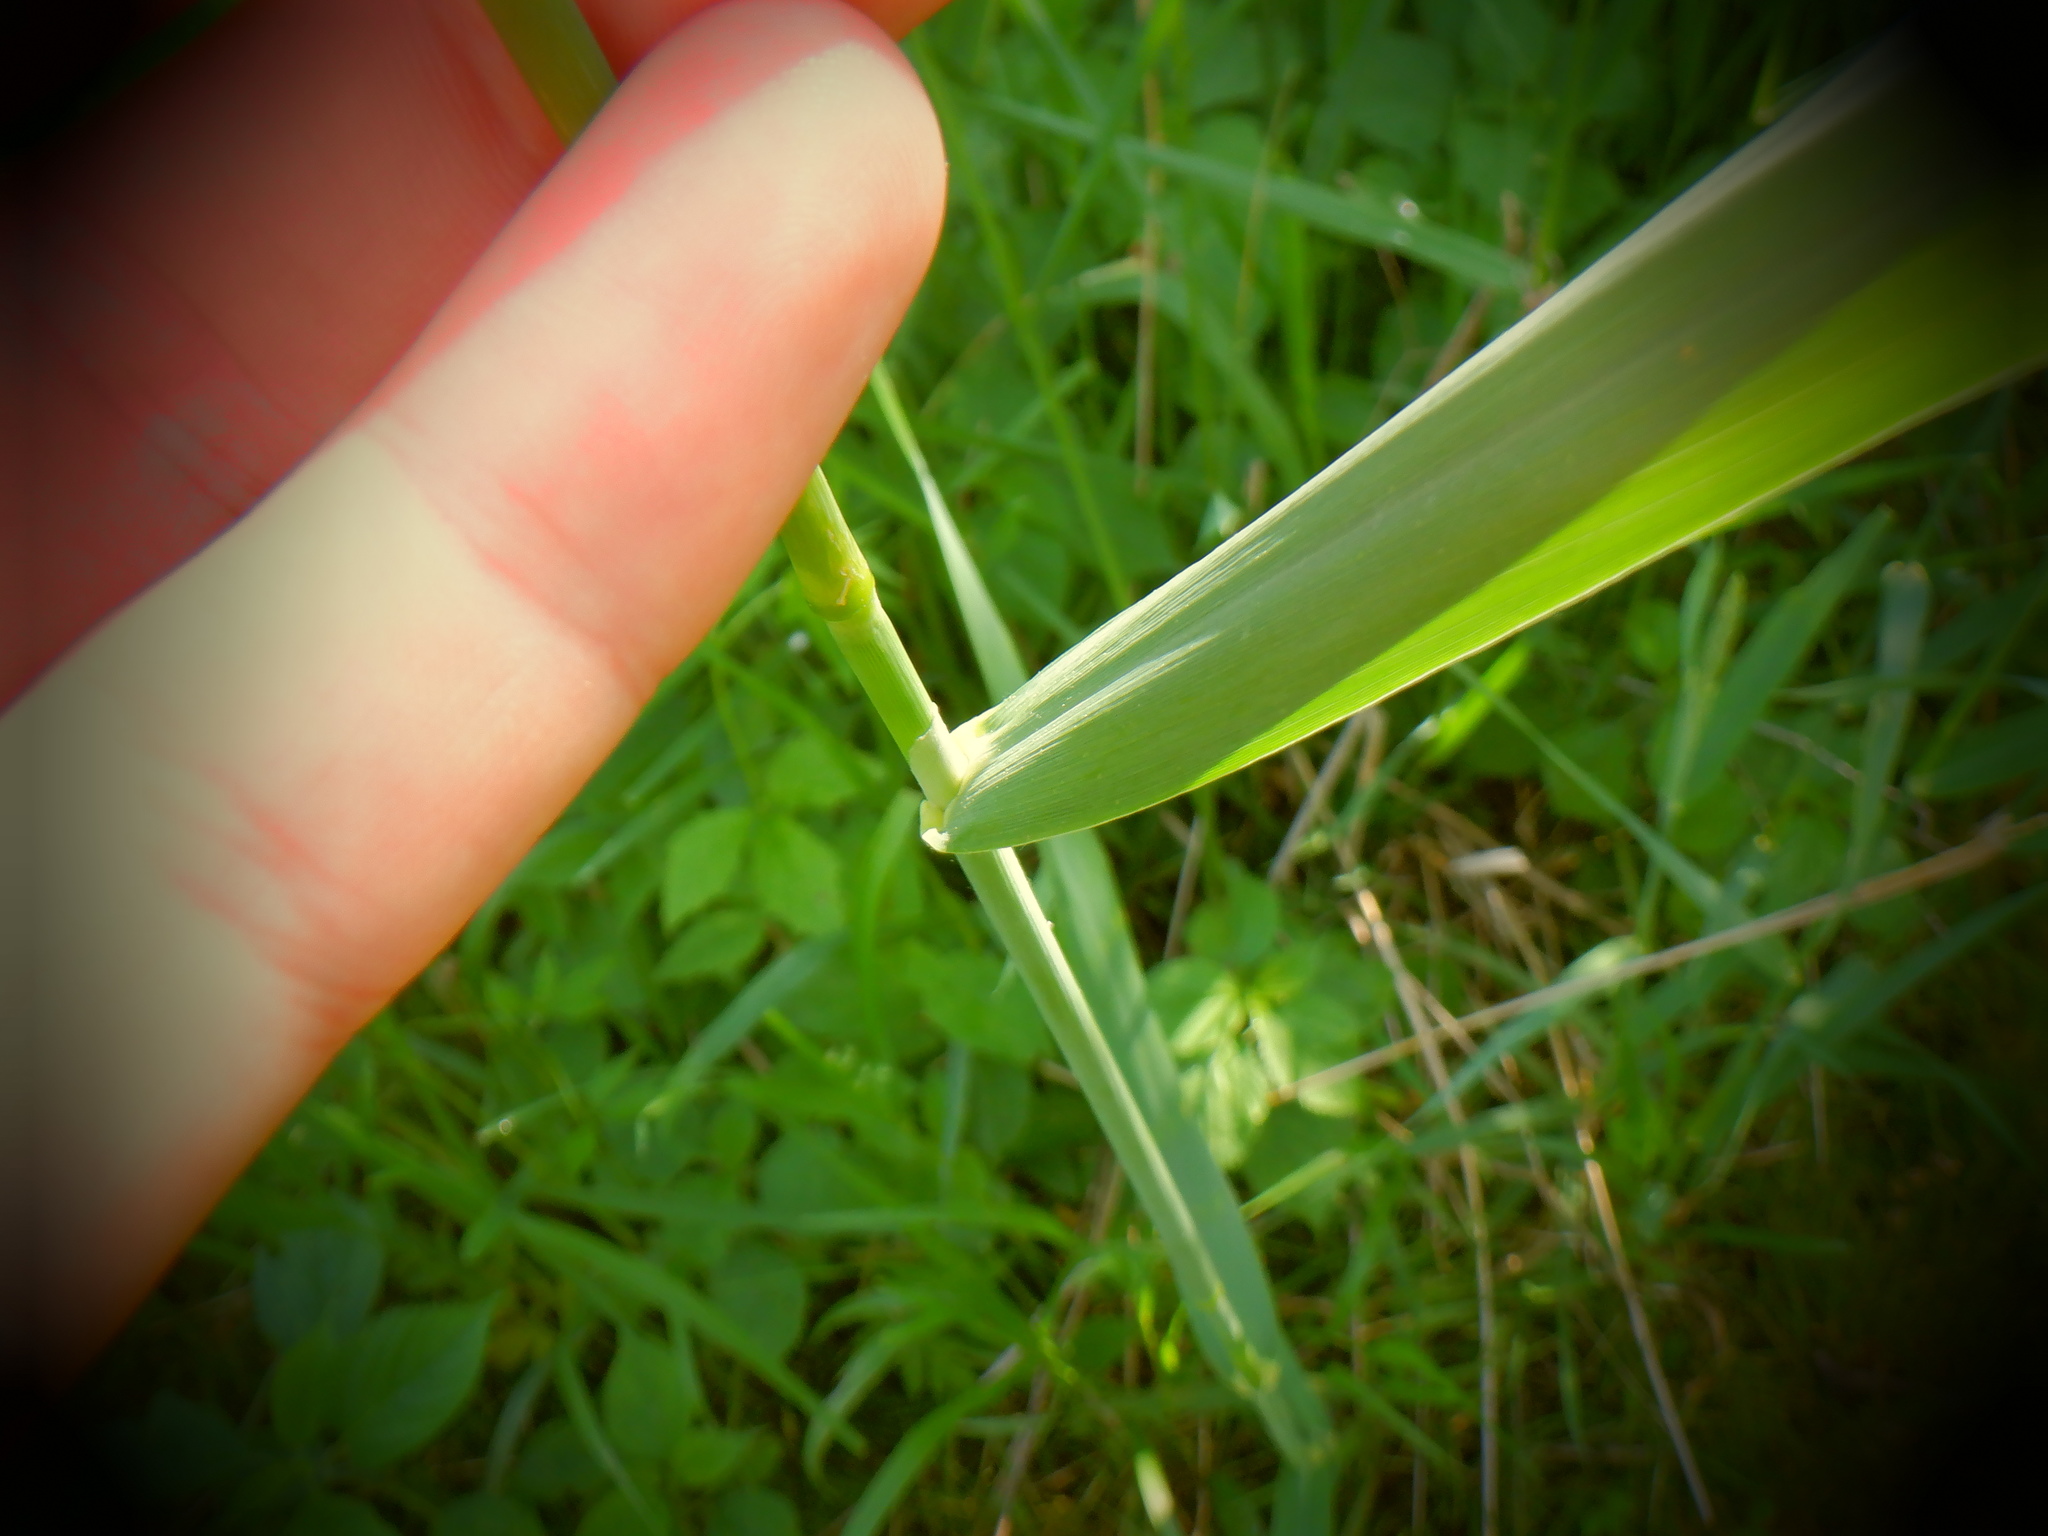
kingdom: Plantae
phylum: Tracheophyta
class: Liliopsida
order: Poales
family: Poaceae
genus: Phalaris
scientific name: Phalaris arundinacea
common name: Reed canary-grass
